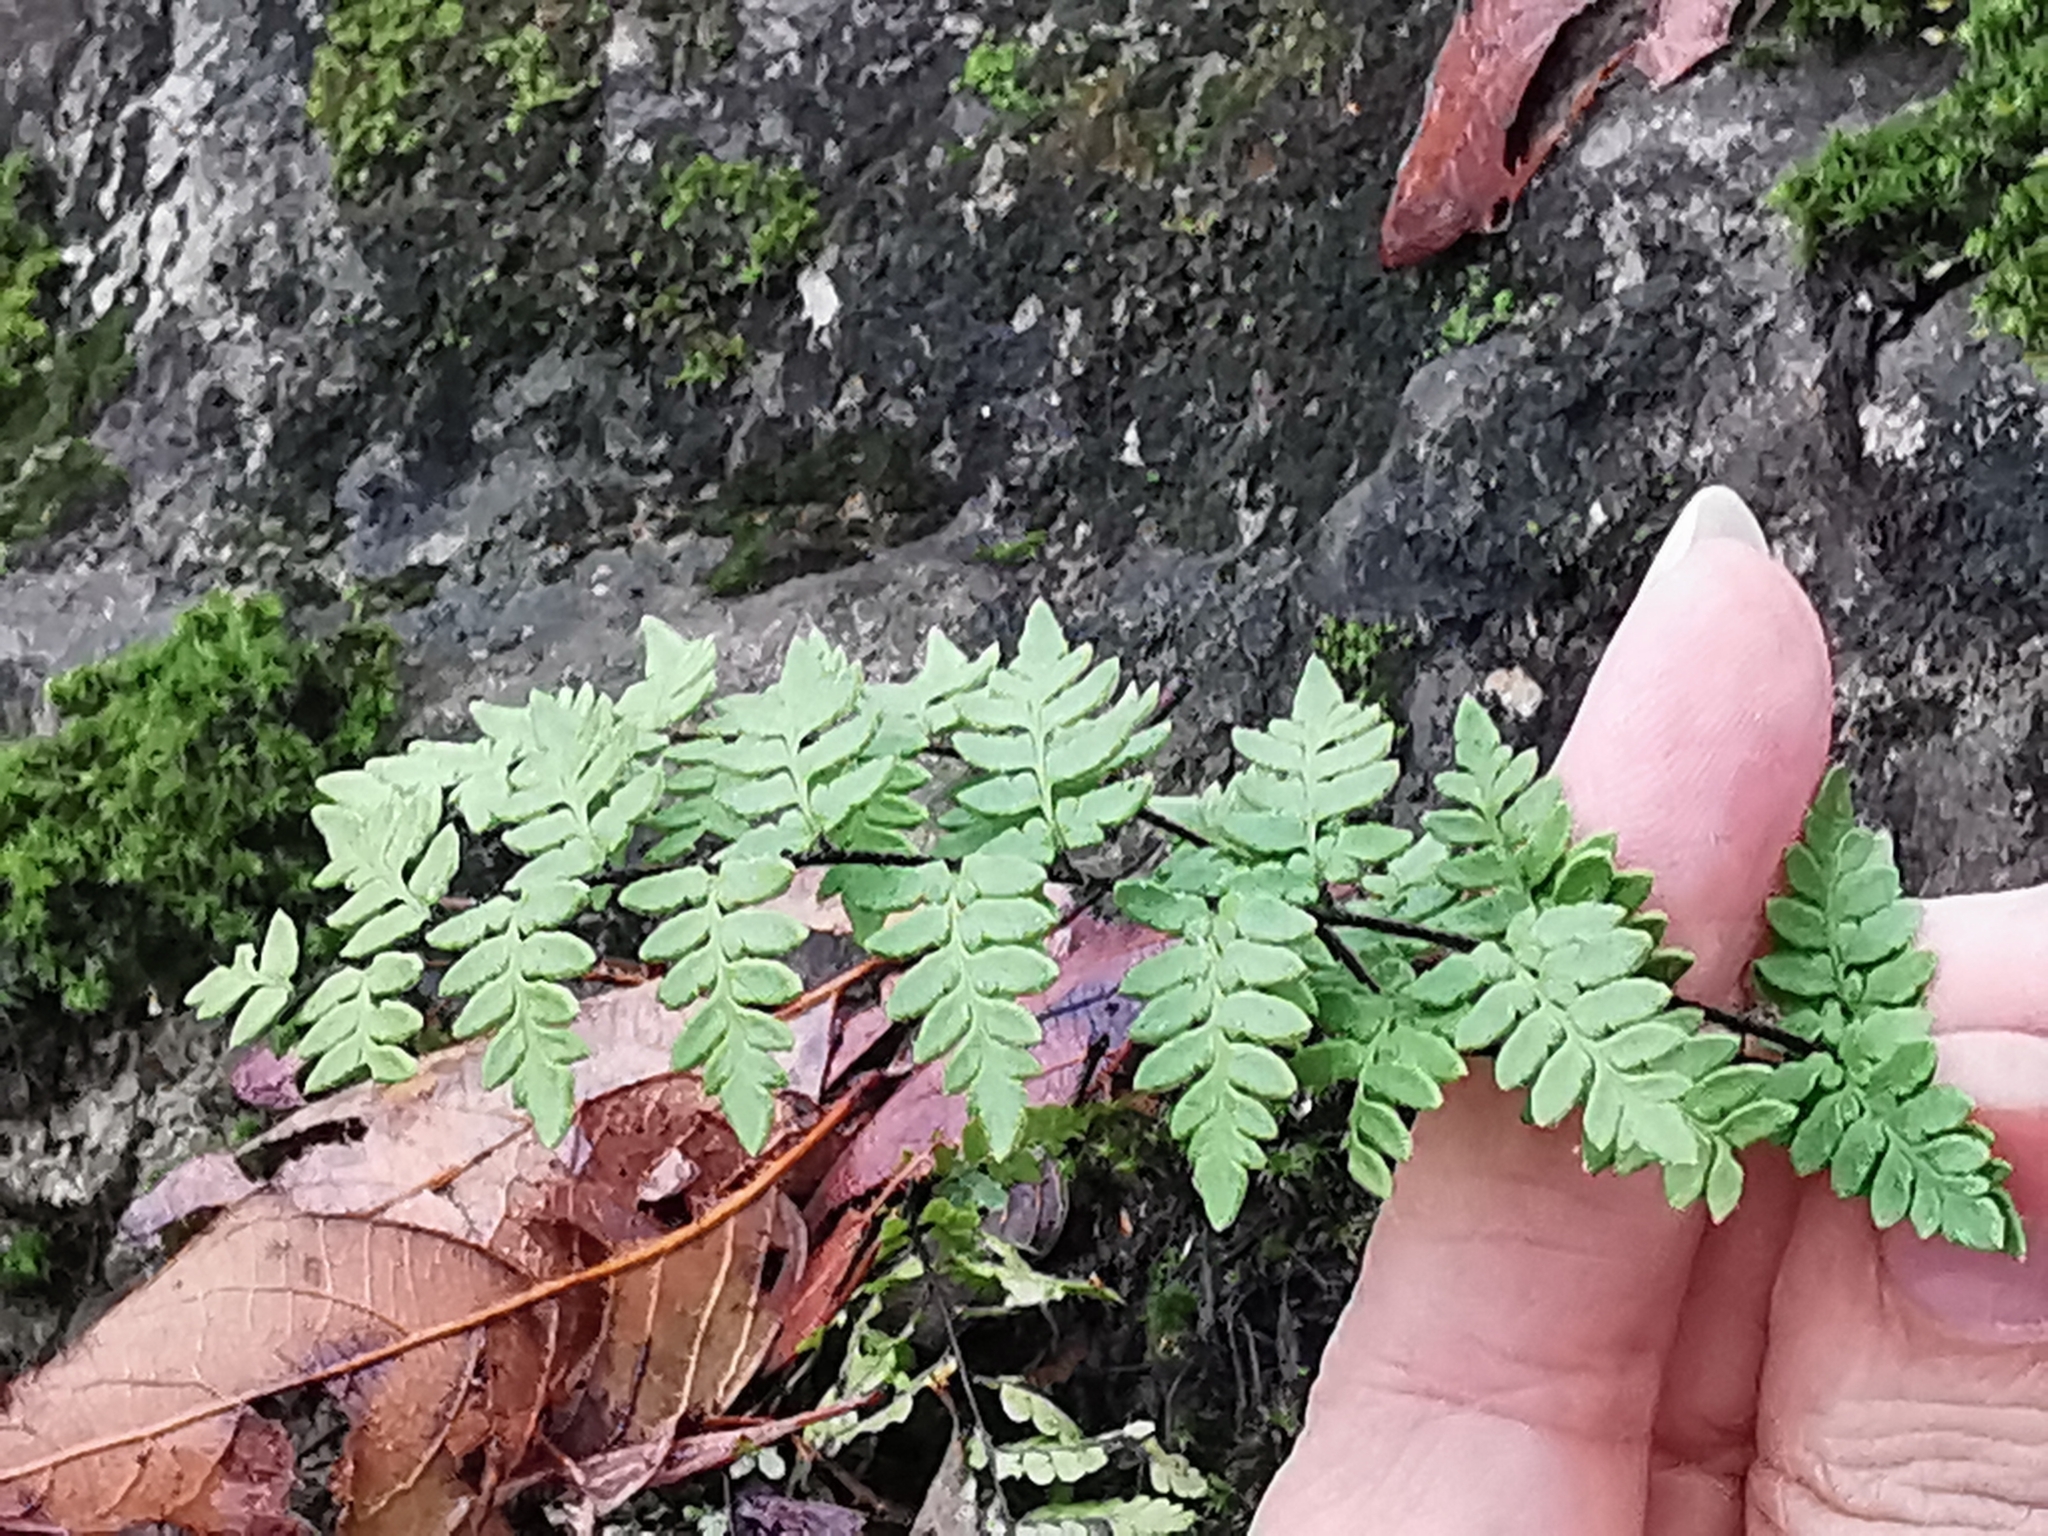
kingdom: Plantae
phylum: Tracheophyta
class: Polypodiopsida
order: Polypodiales
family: Pteridaceae
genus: Myriopteris
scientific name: Myriopteris alabamensis
